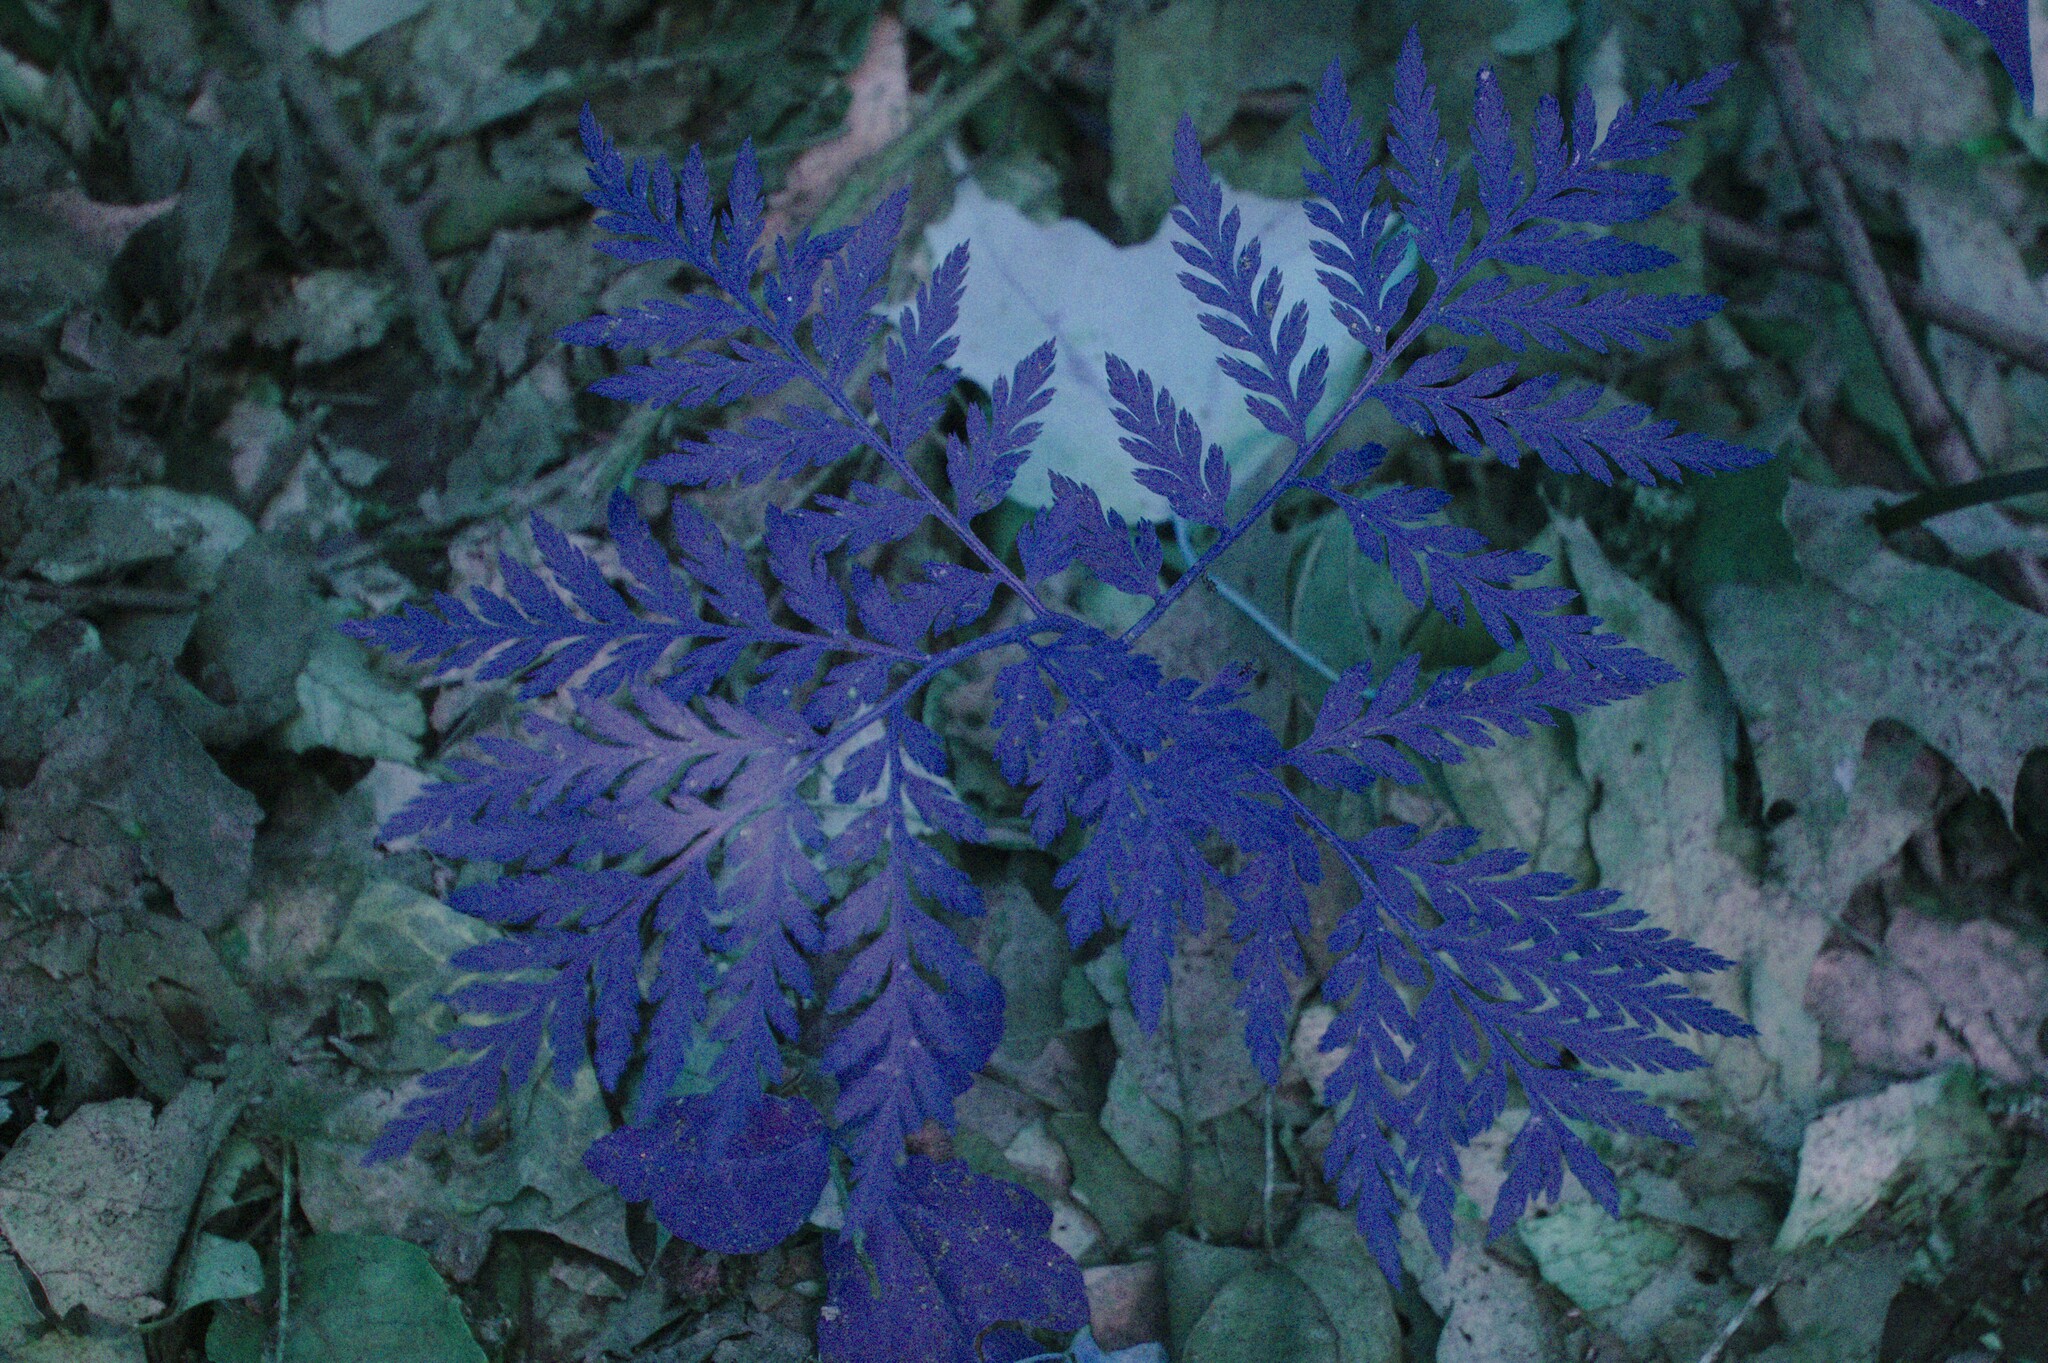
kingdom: Plantae
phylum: Tracheophyta
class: Polypodiopsida
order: Ophioglossales
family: Ophioglossaceae
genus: Botrypus
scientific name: Botrypus virginianus
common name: Common grapefern
